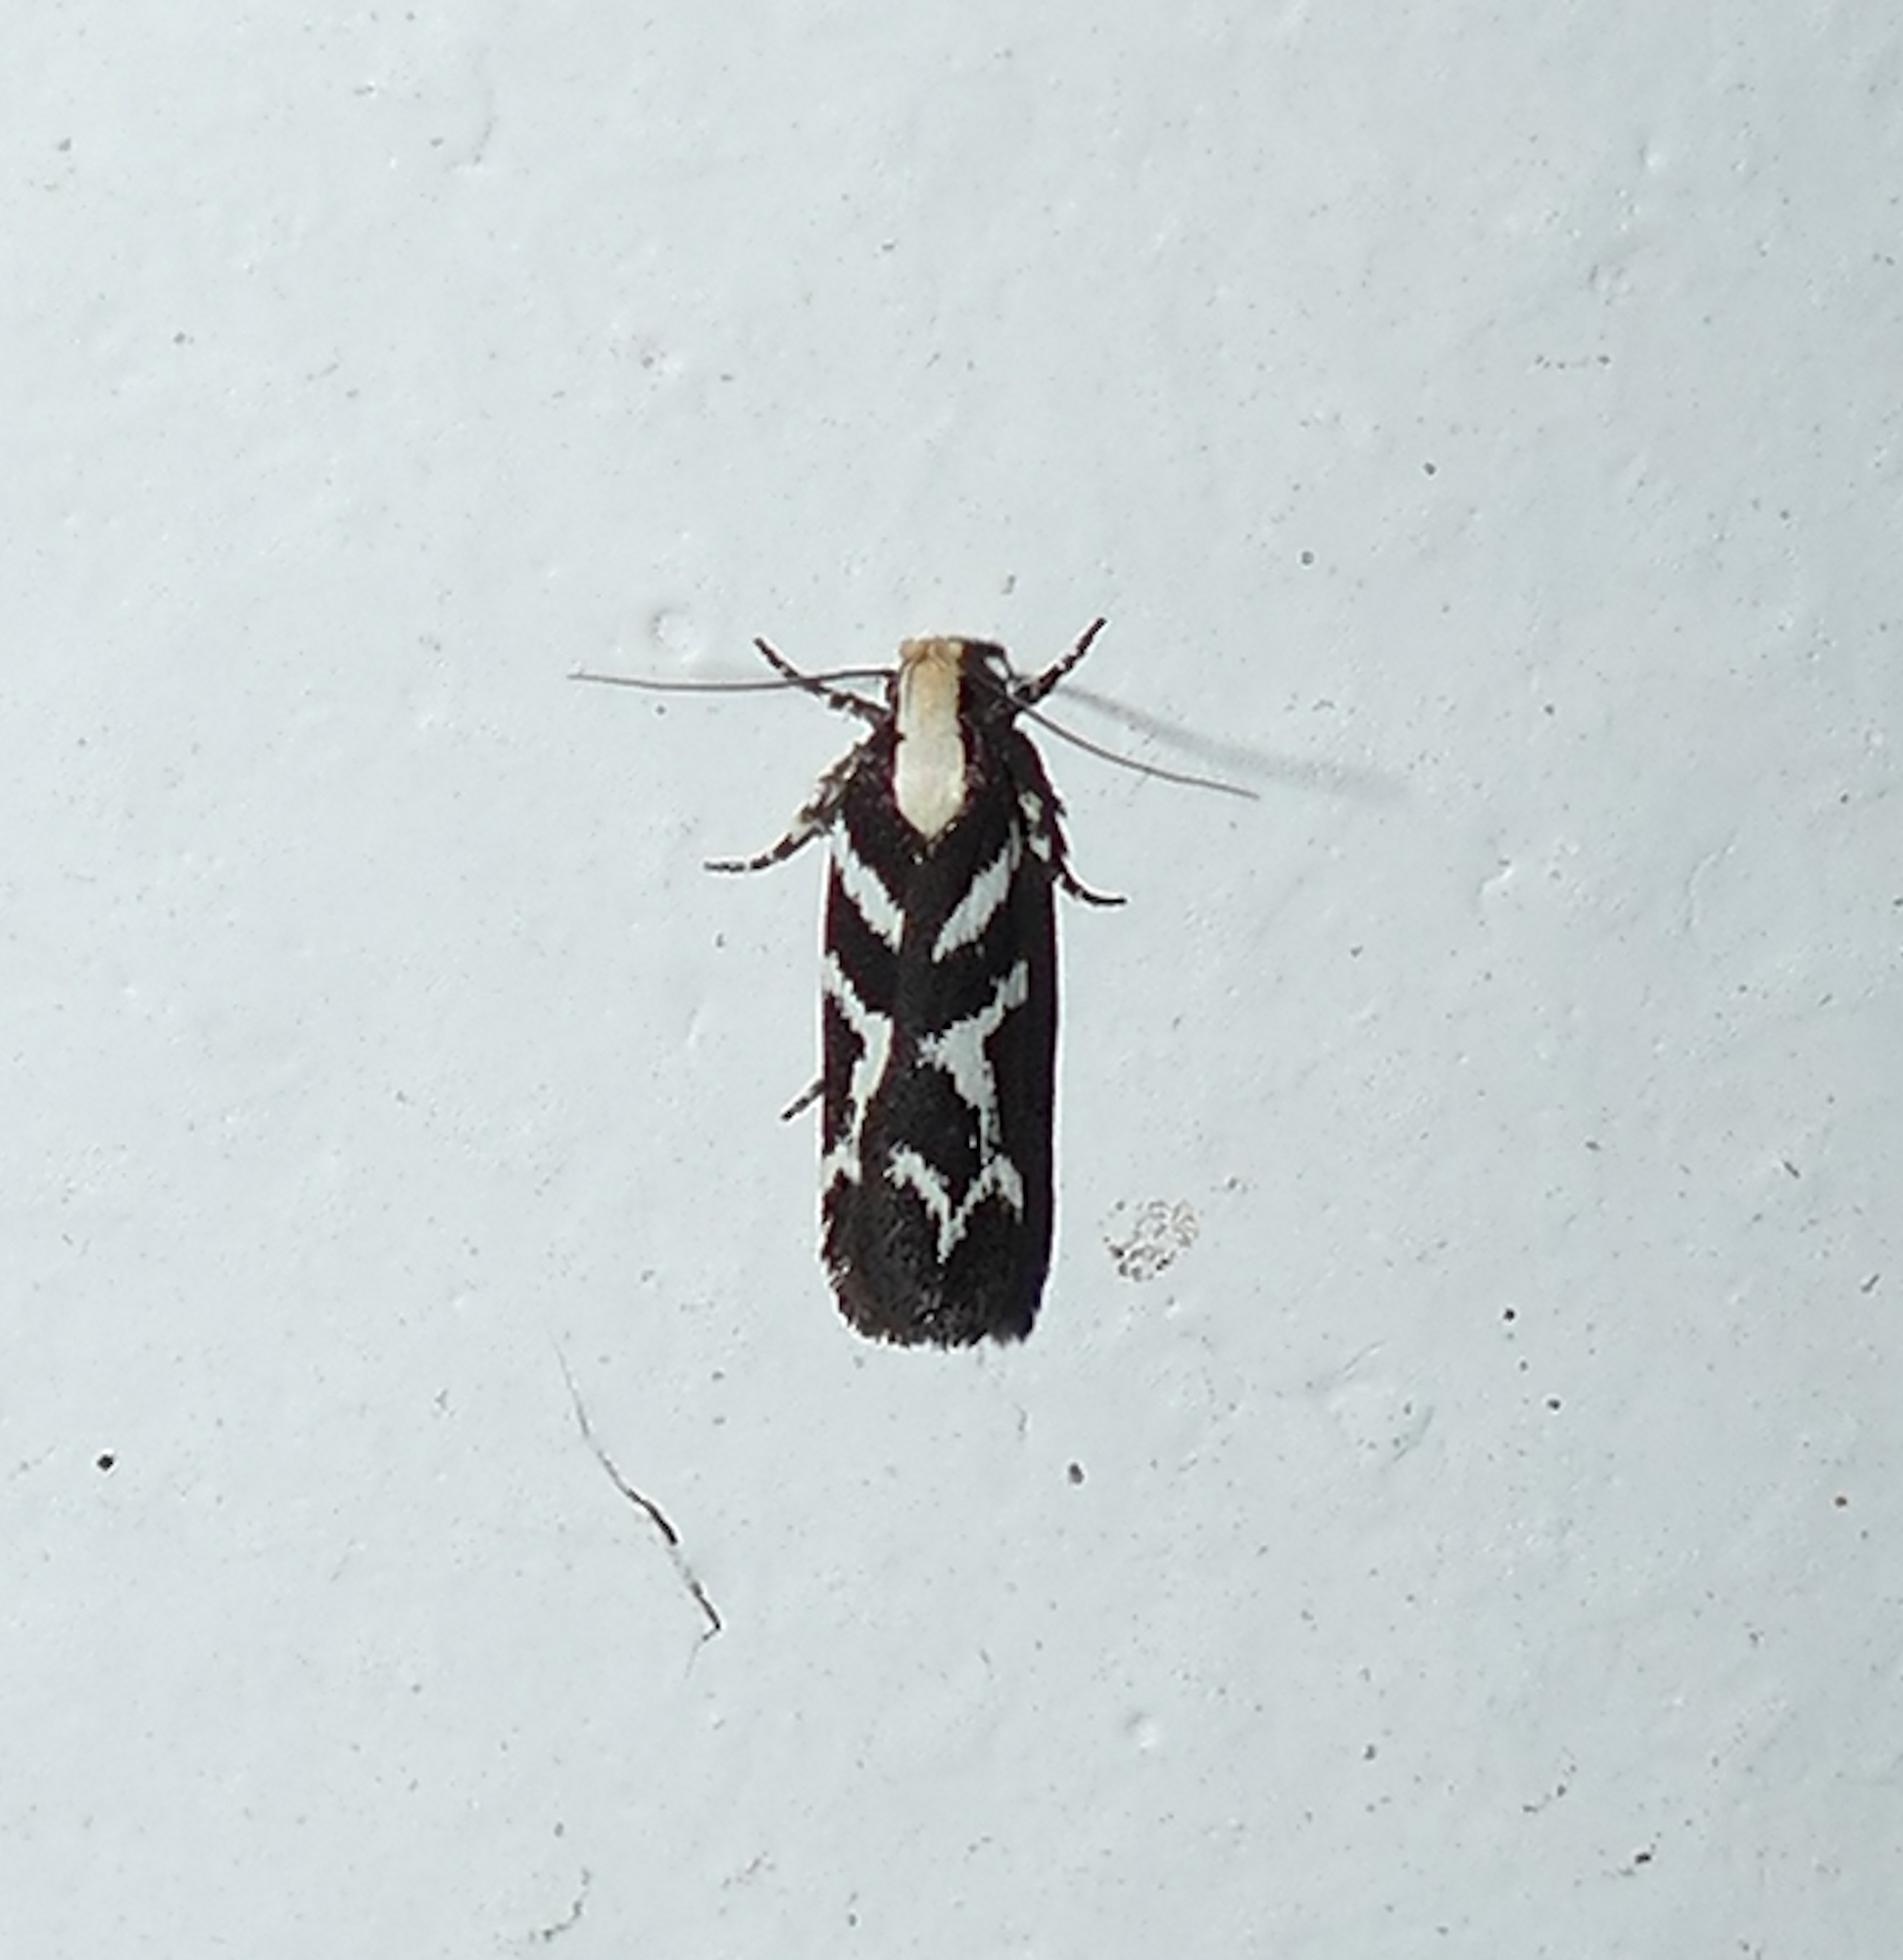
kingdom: Animalia
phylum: Arthropoda
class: Insecta
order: Lepidoptera
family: Gelechiidae
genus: Filatima
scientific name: Filatima albilorella
